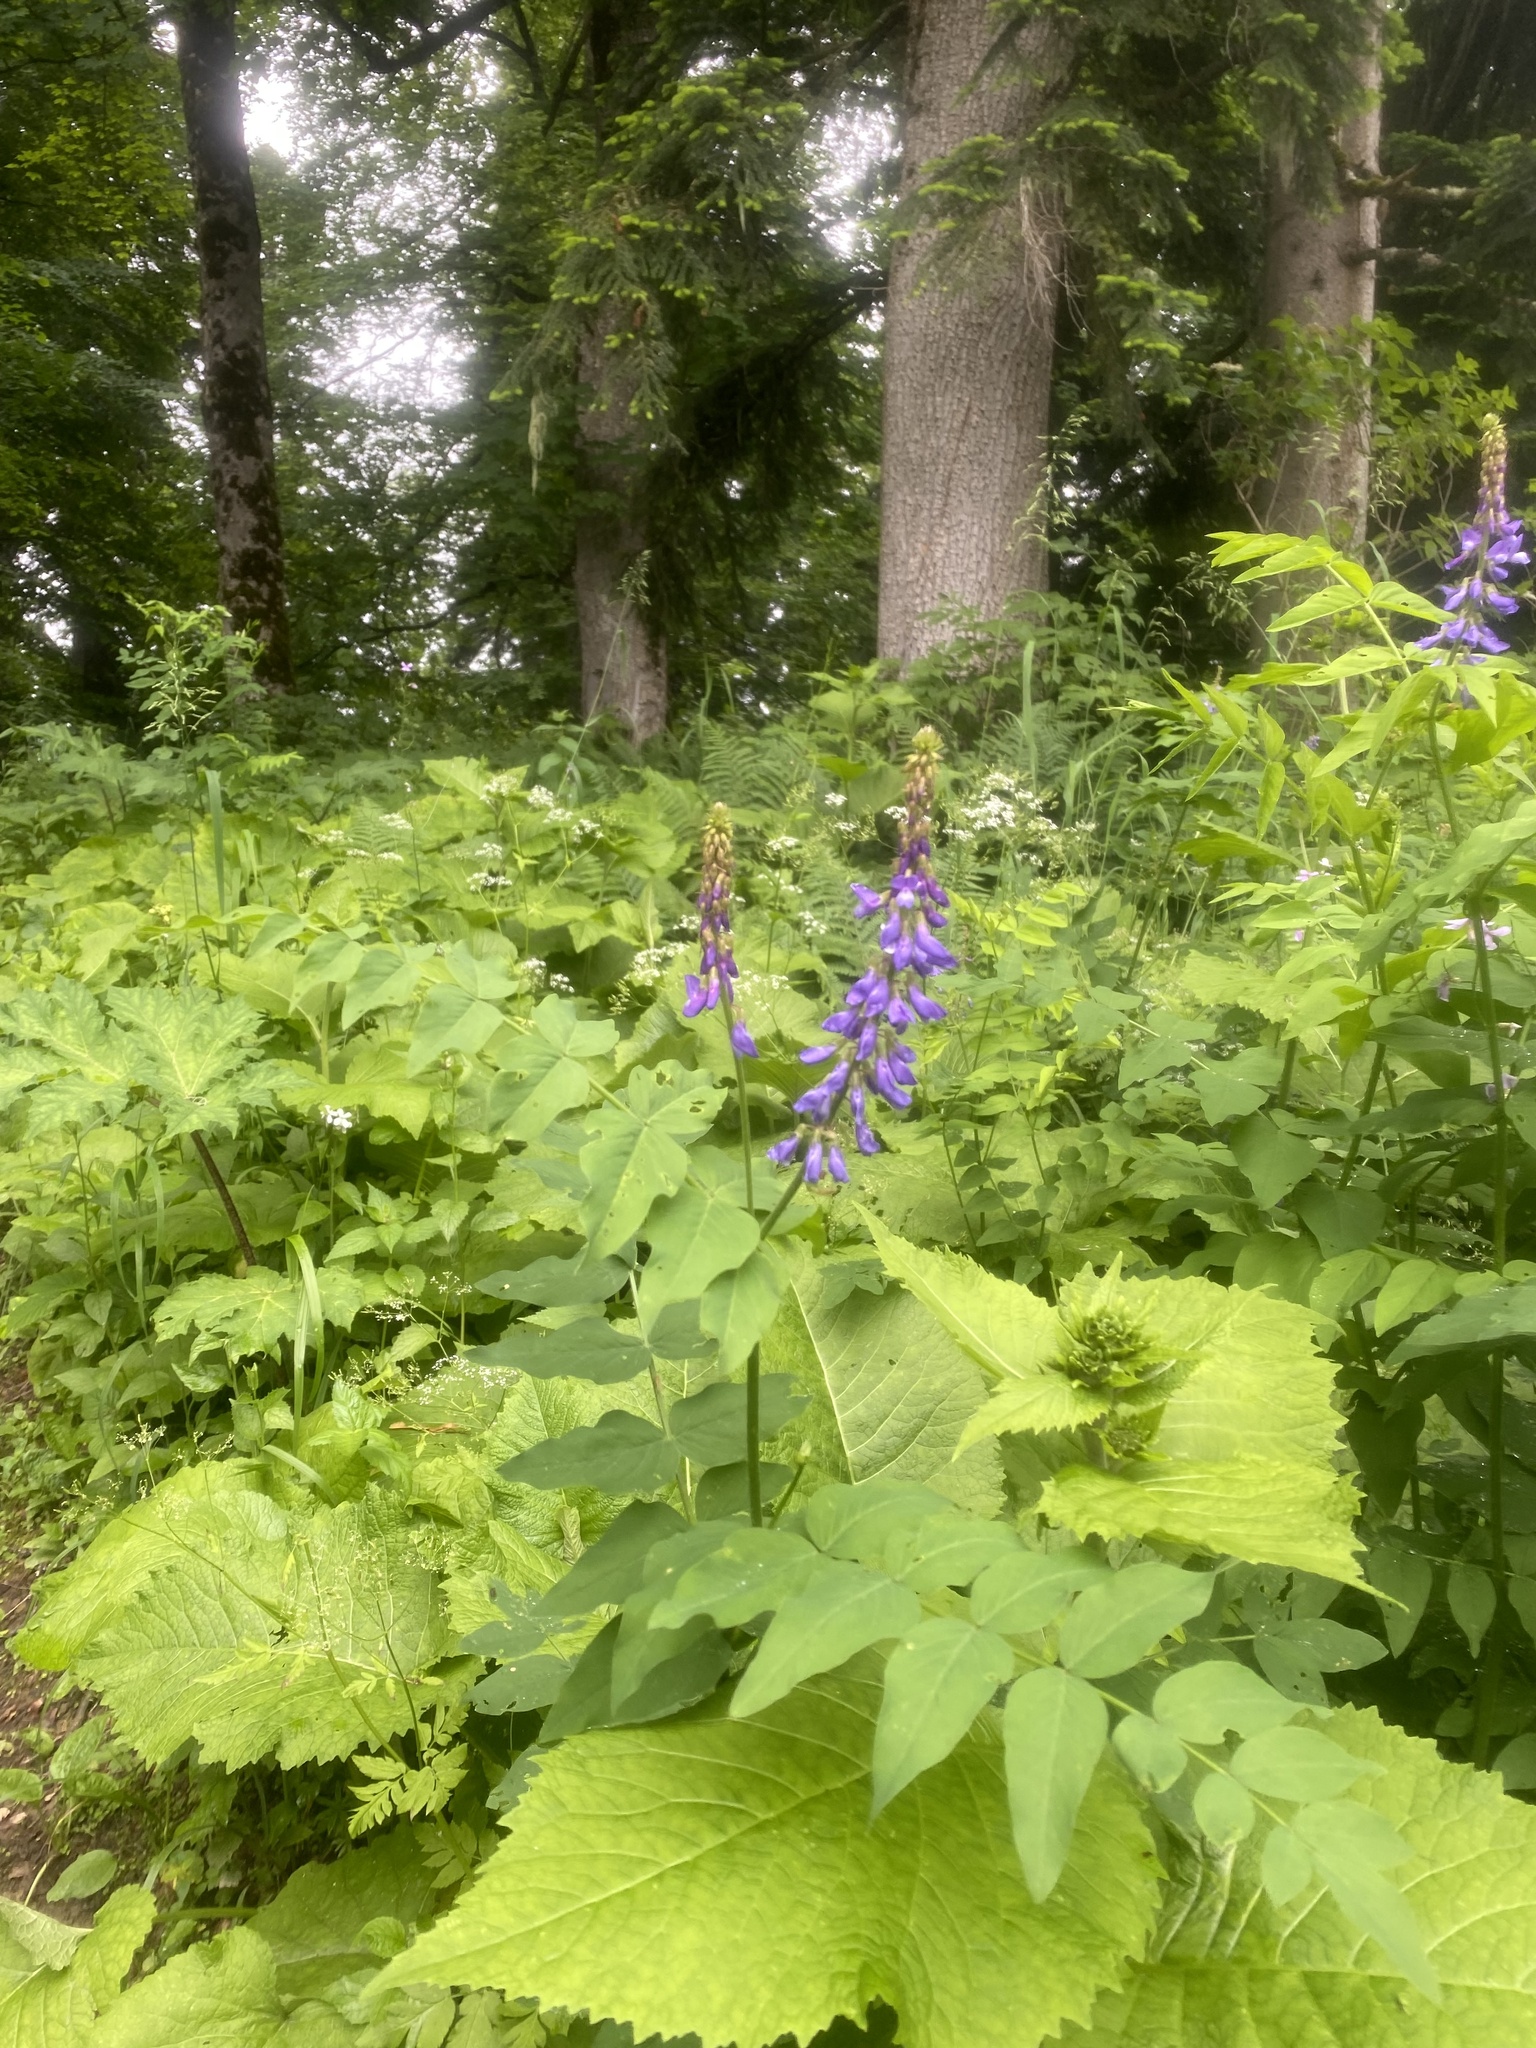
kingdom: Plantae
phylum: Tracheophyta
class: Magnoliopsida
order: Fabales
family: Fabaceae
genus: Galega
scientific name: Galega orientalis
